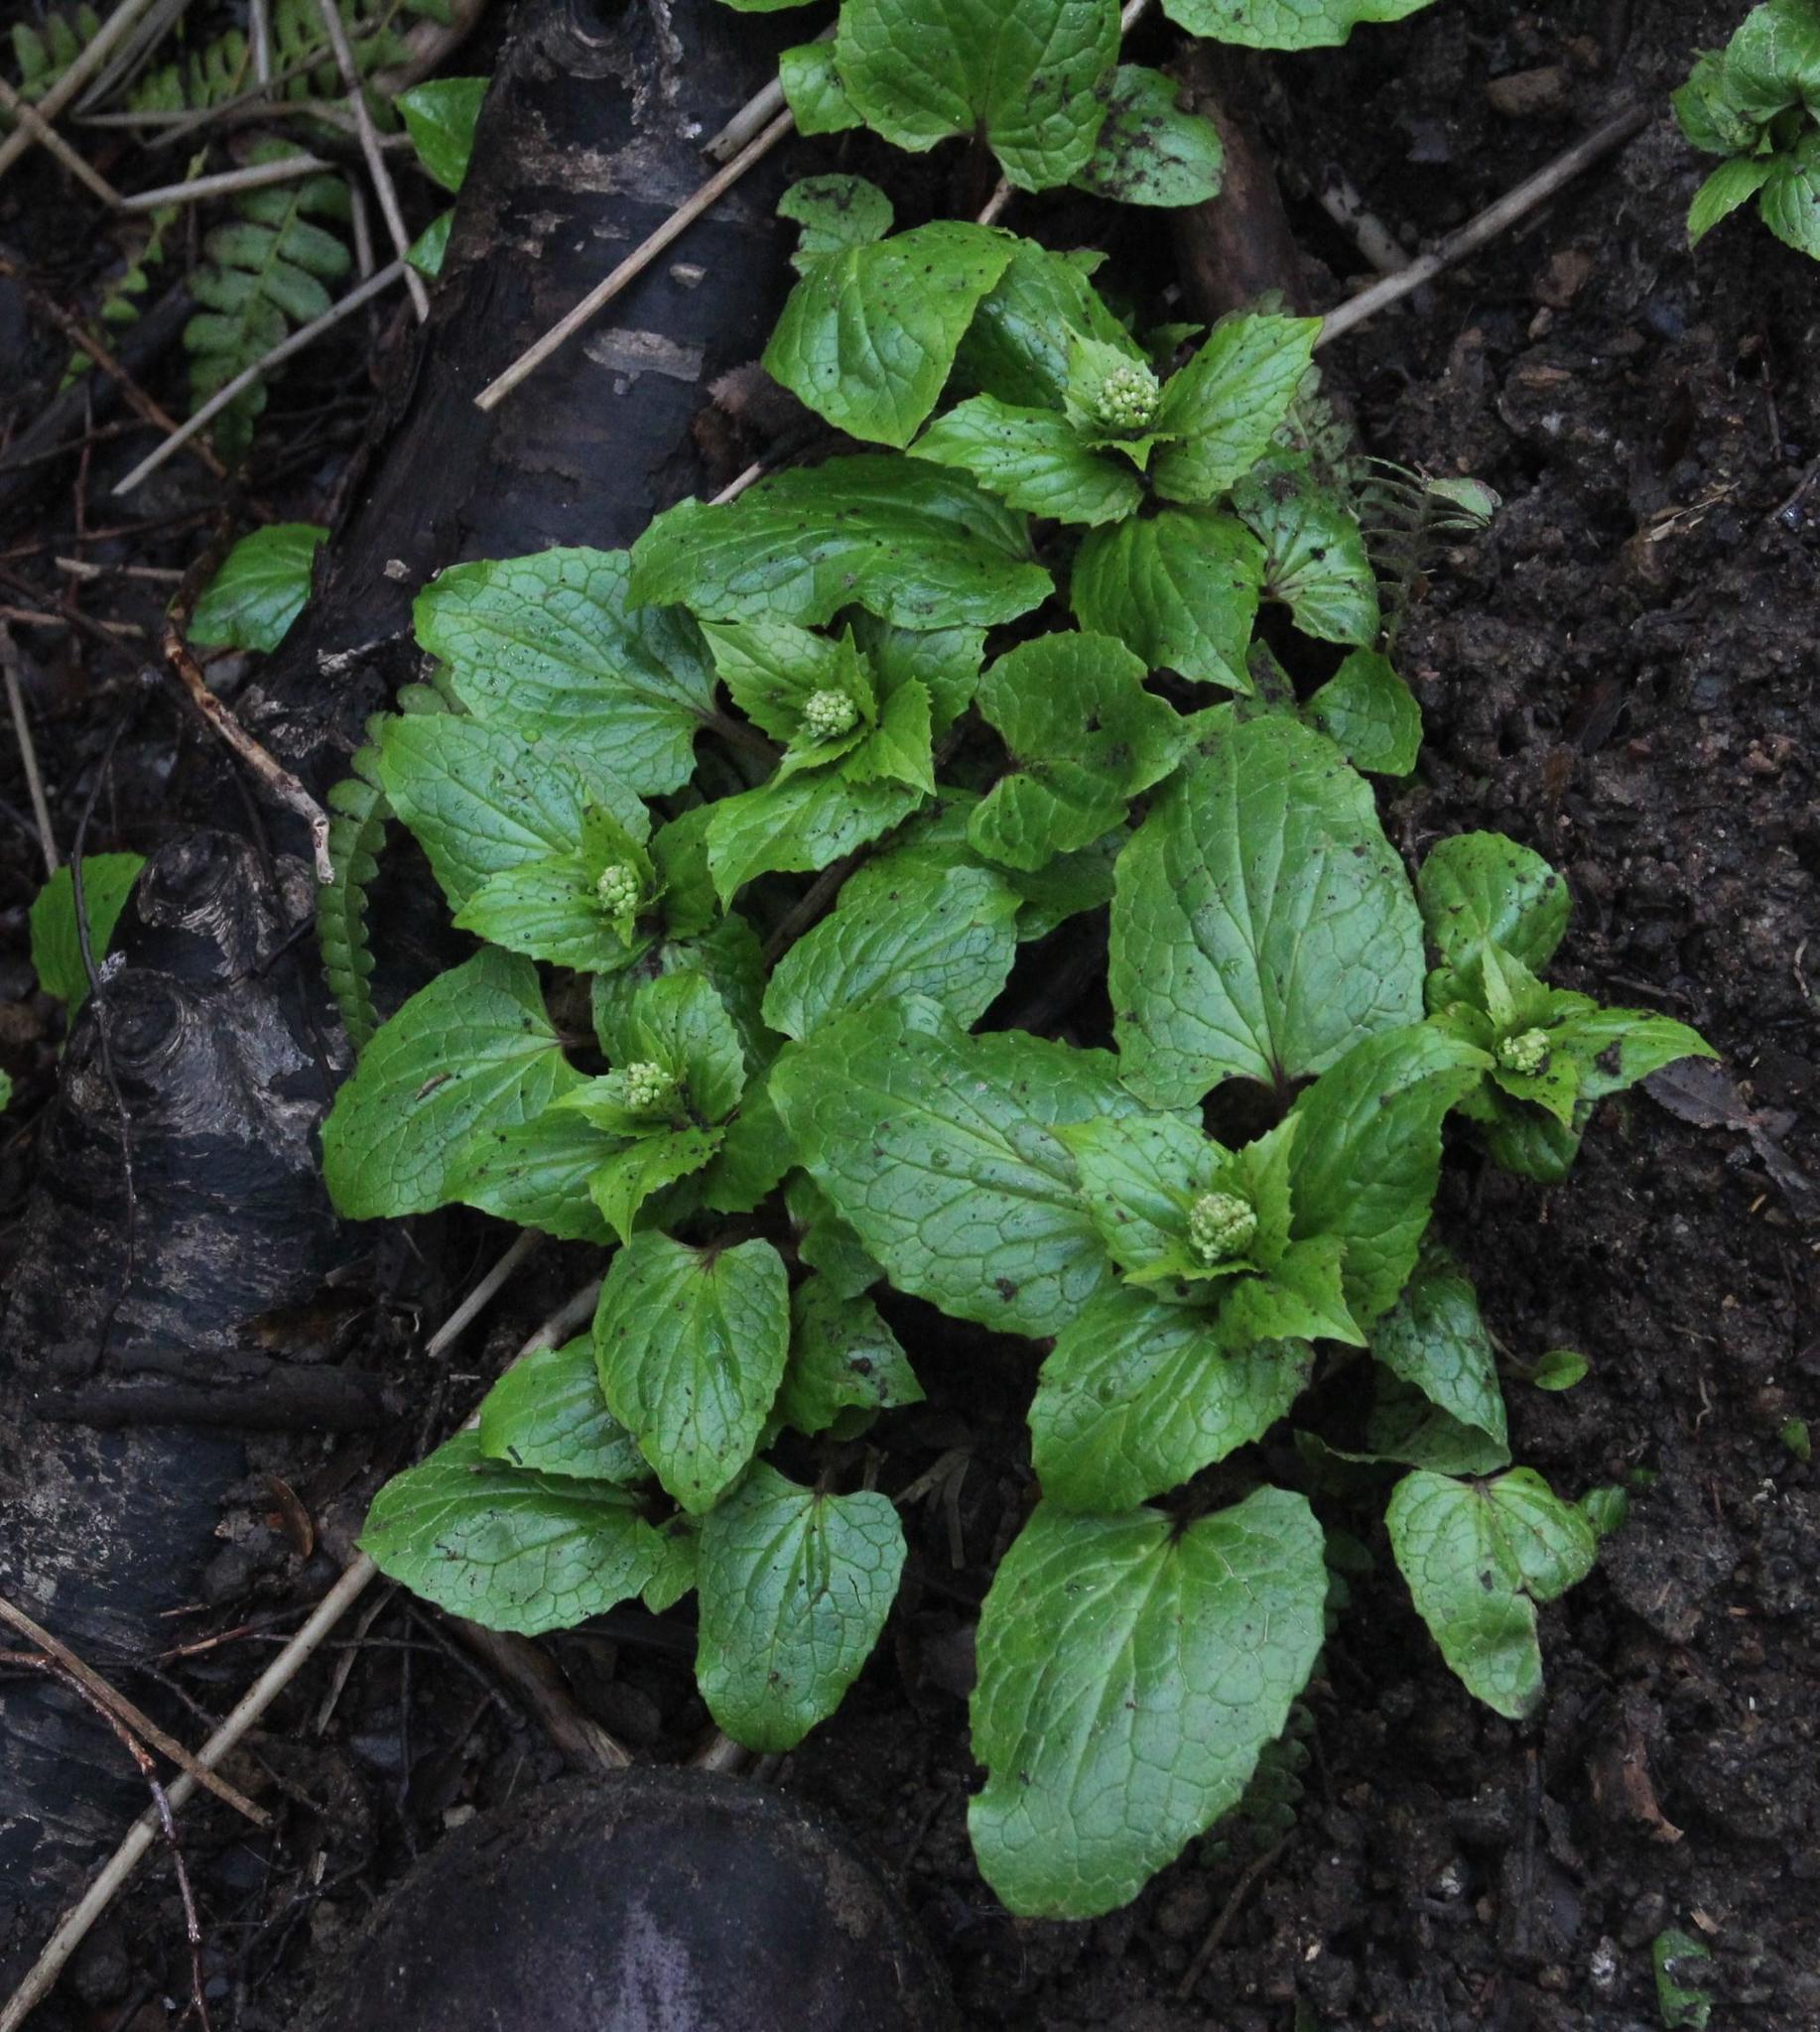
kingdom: Plantae
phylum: Tracheophyta
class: Magnoliopsida
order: Dipsacales
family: Caprifoliaceae
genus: Valeriana
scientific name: Valeriana lapathifolia
